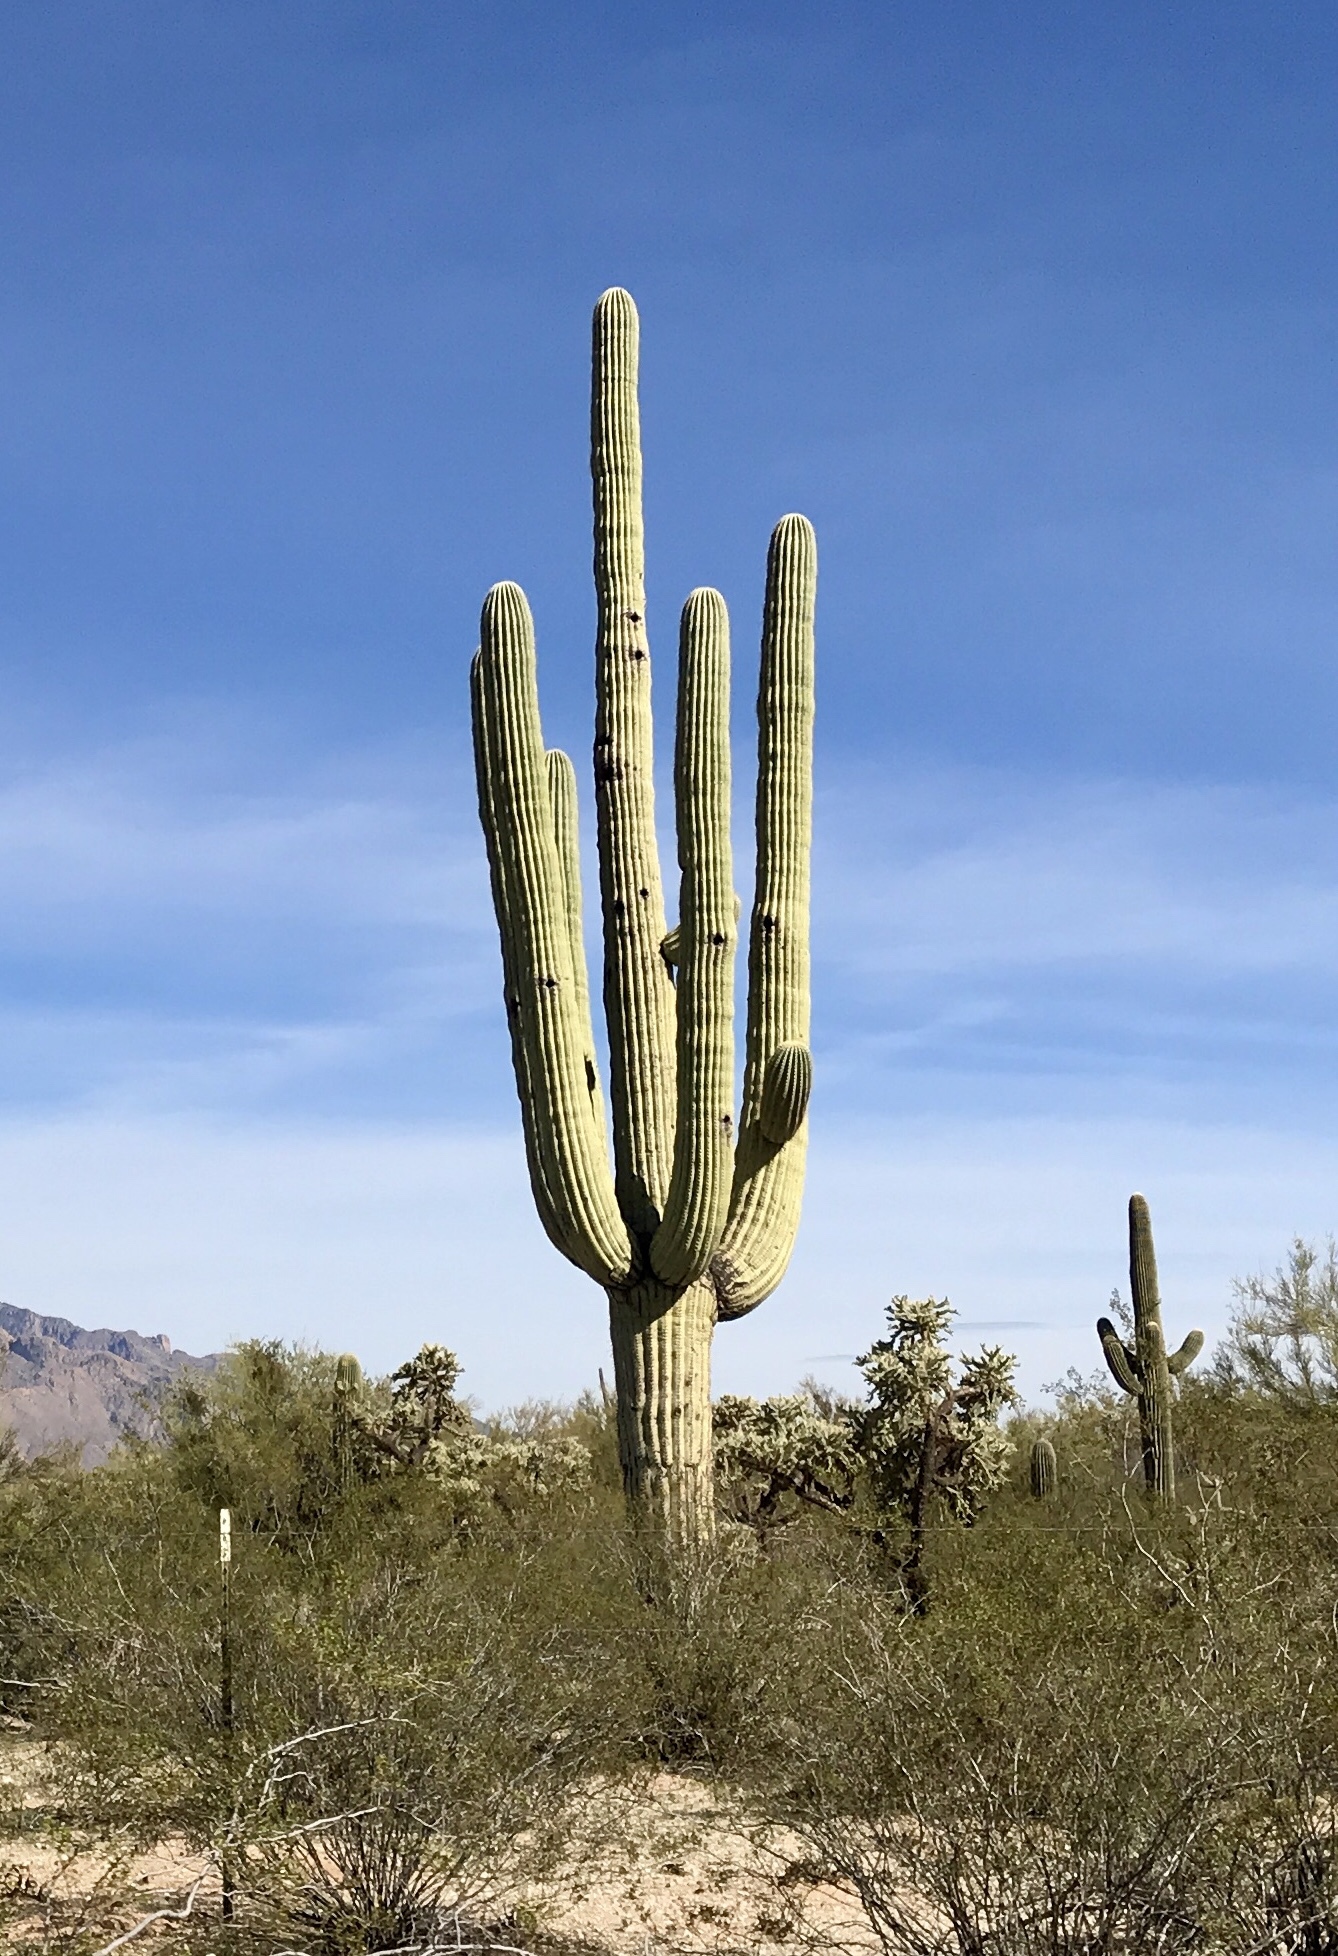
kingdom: Plantae
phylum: Tracheophyta
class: Magnoliopsida
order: Caryophyllales
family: Cactaceae
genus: Carnegiea
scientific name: Carnegiea gigantea
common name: Saguaro
